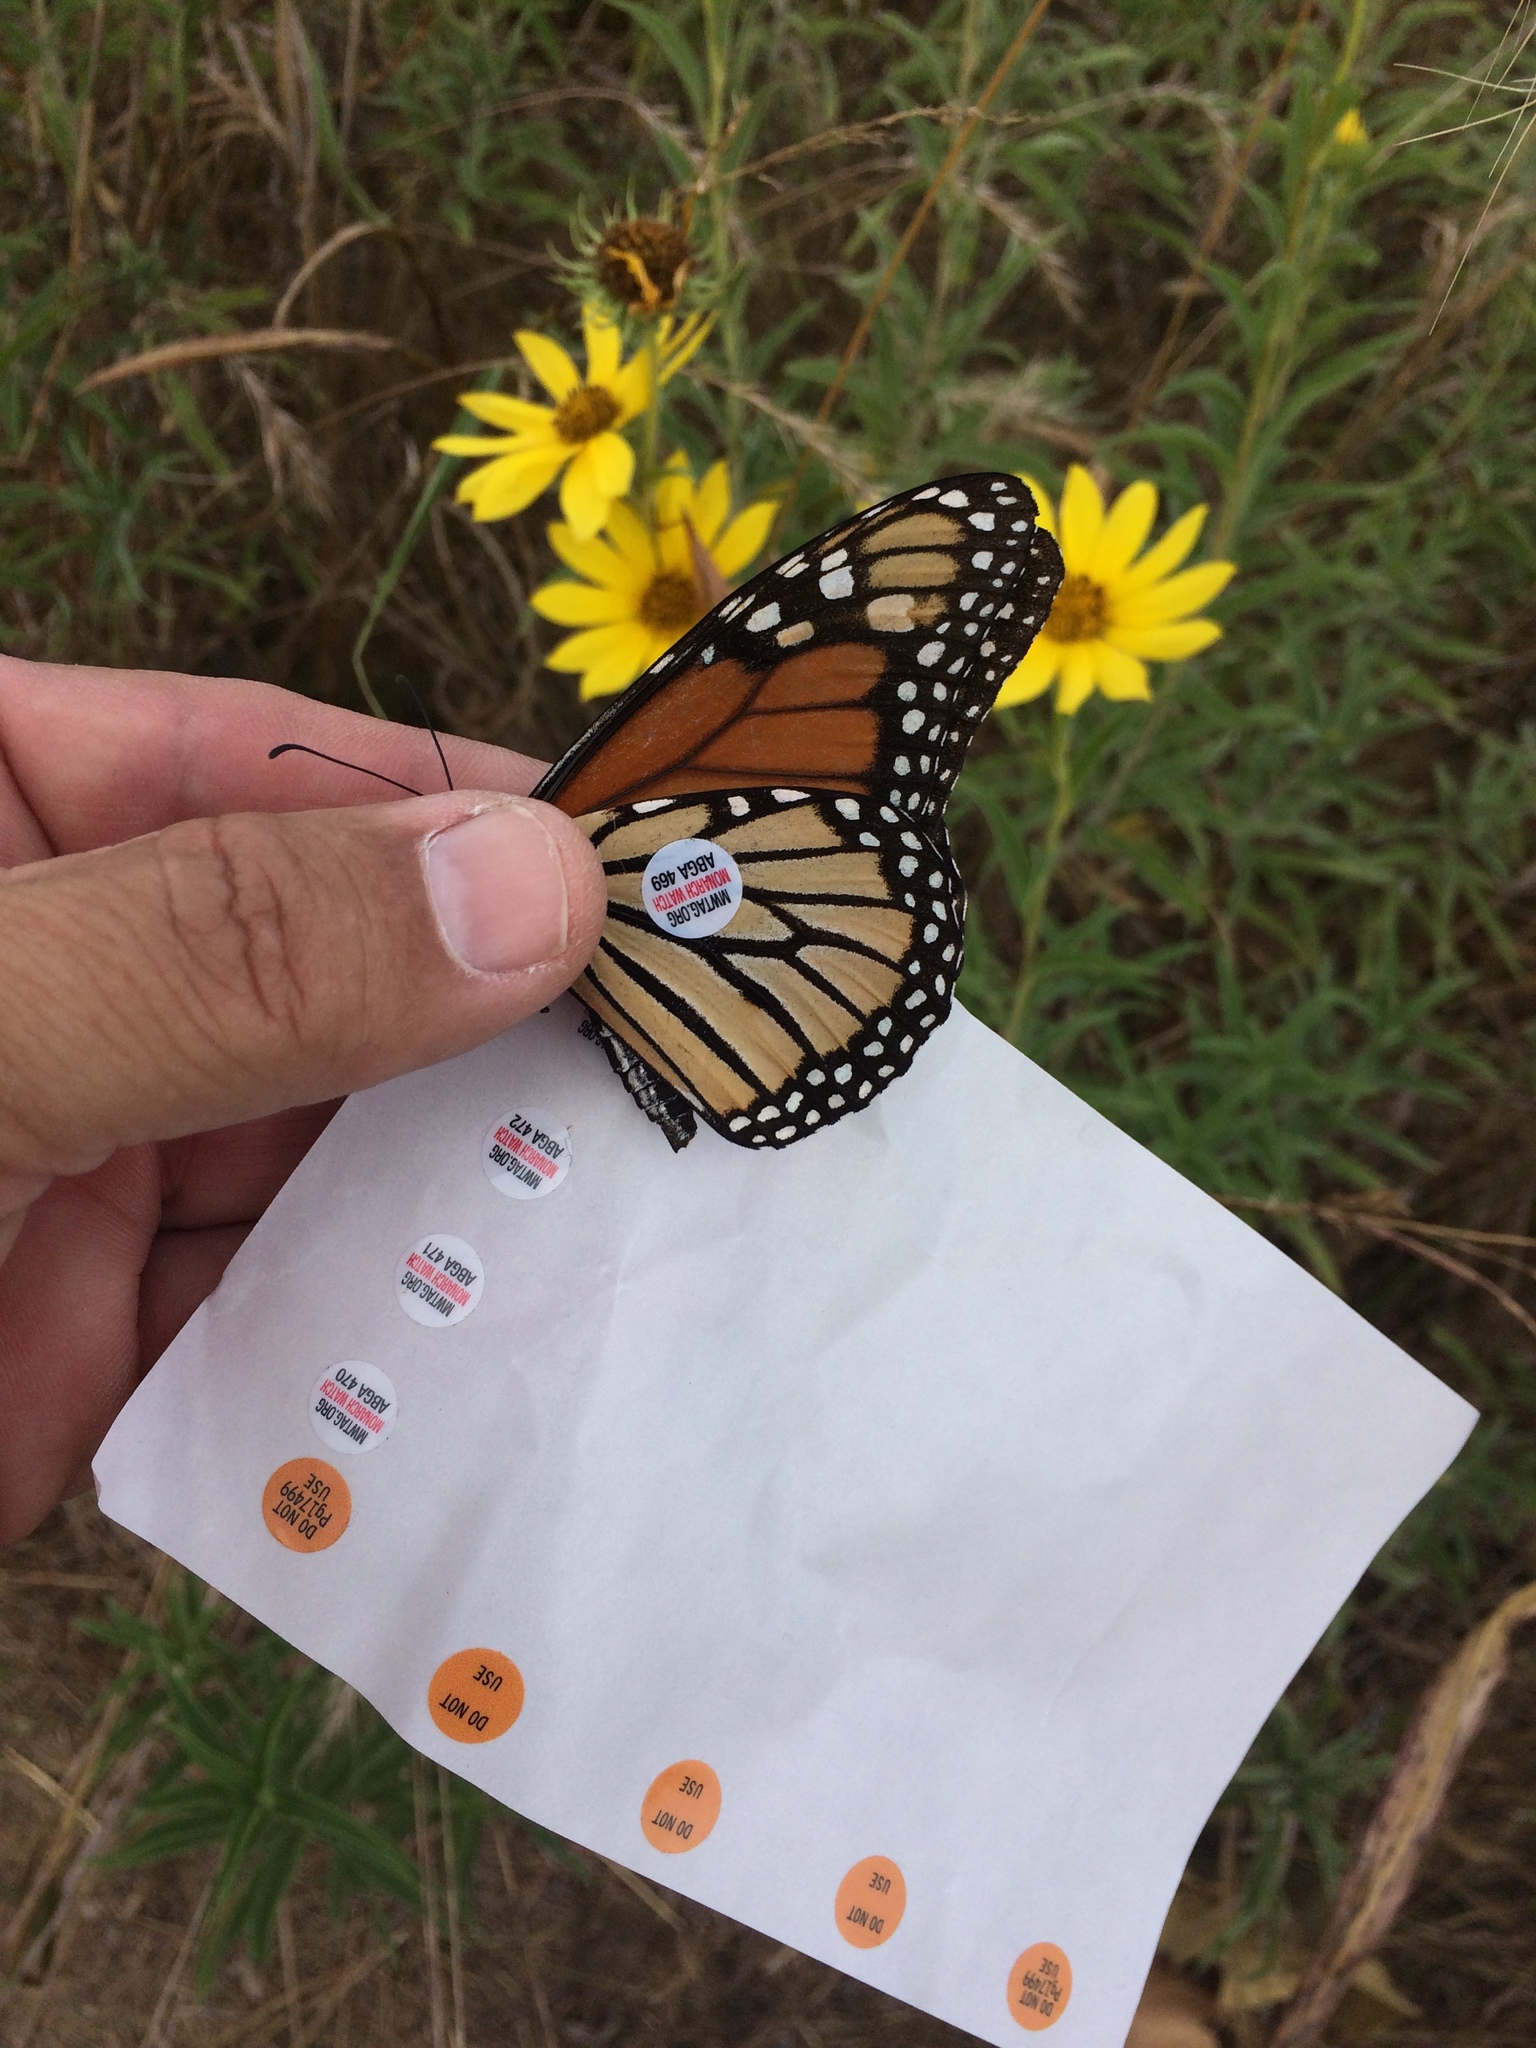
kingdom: Animalia
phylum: Arthropoda
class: Insecta
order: Lepidoptera
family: Nymphalidae
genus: Danaus
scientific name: Danaus plexippus
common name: Monarch
